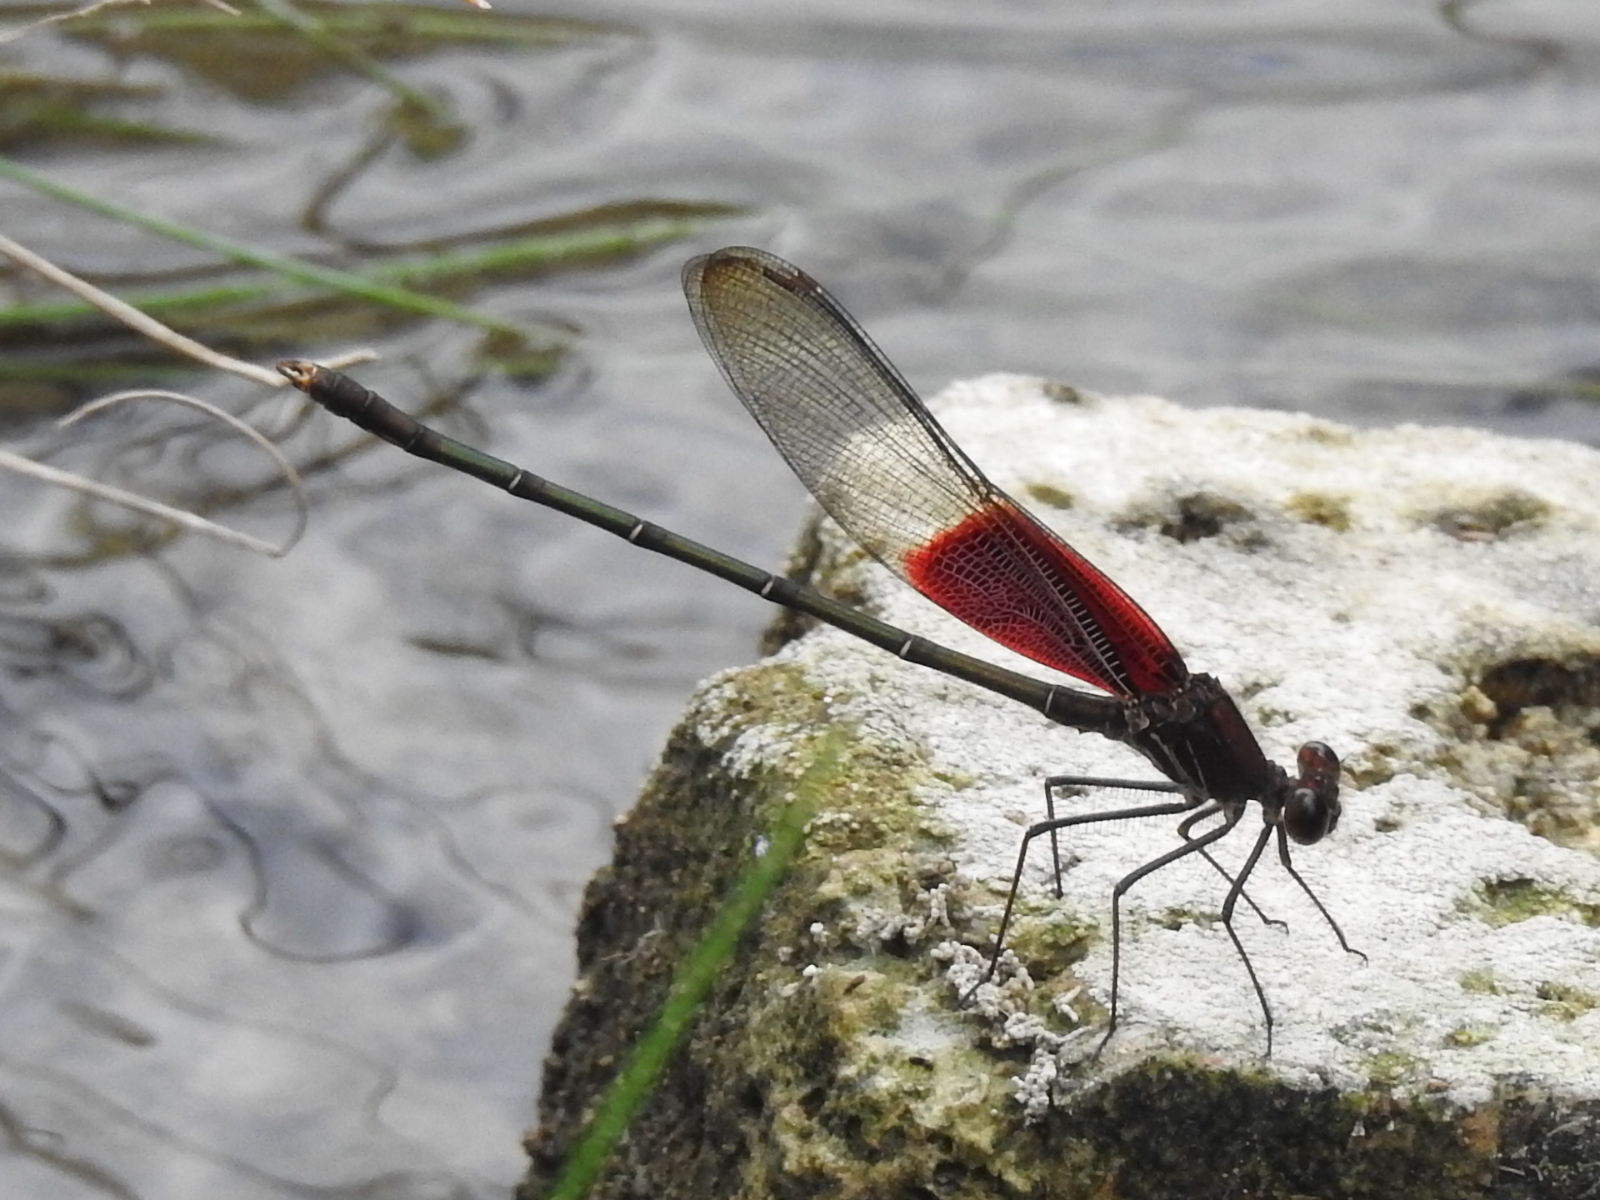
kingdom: Animalia
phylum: Arthropoda
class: Insecta
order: Odonata
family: Calopterygidae
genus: Hetaerina
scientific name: Hetaerina americana
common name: American rubyspot
